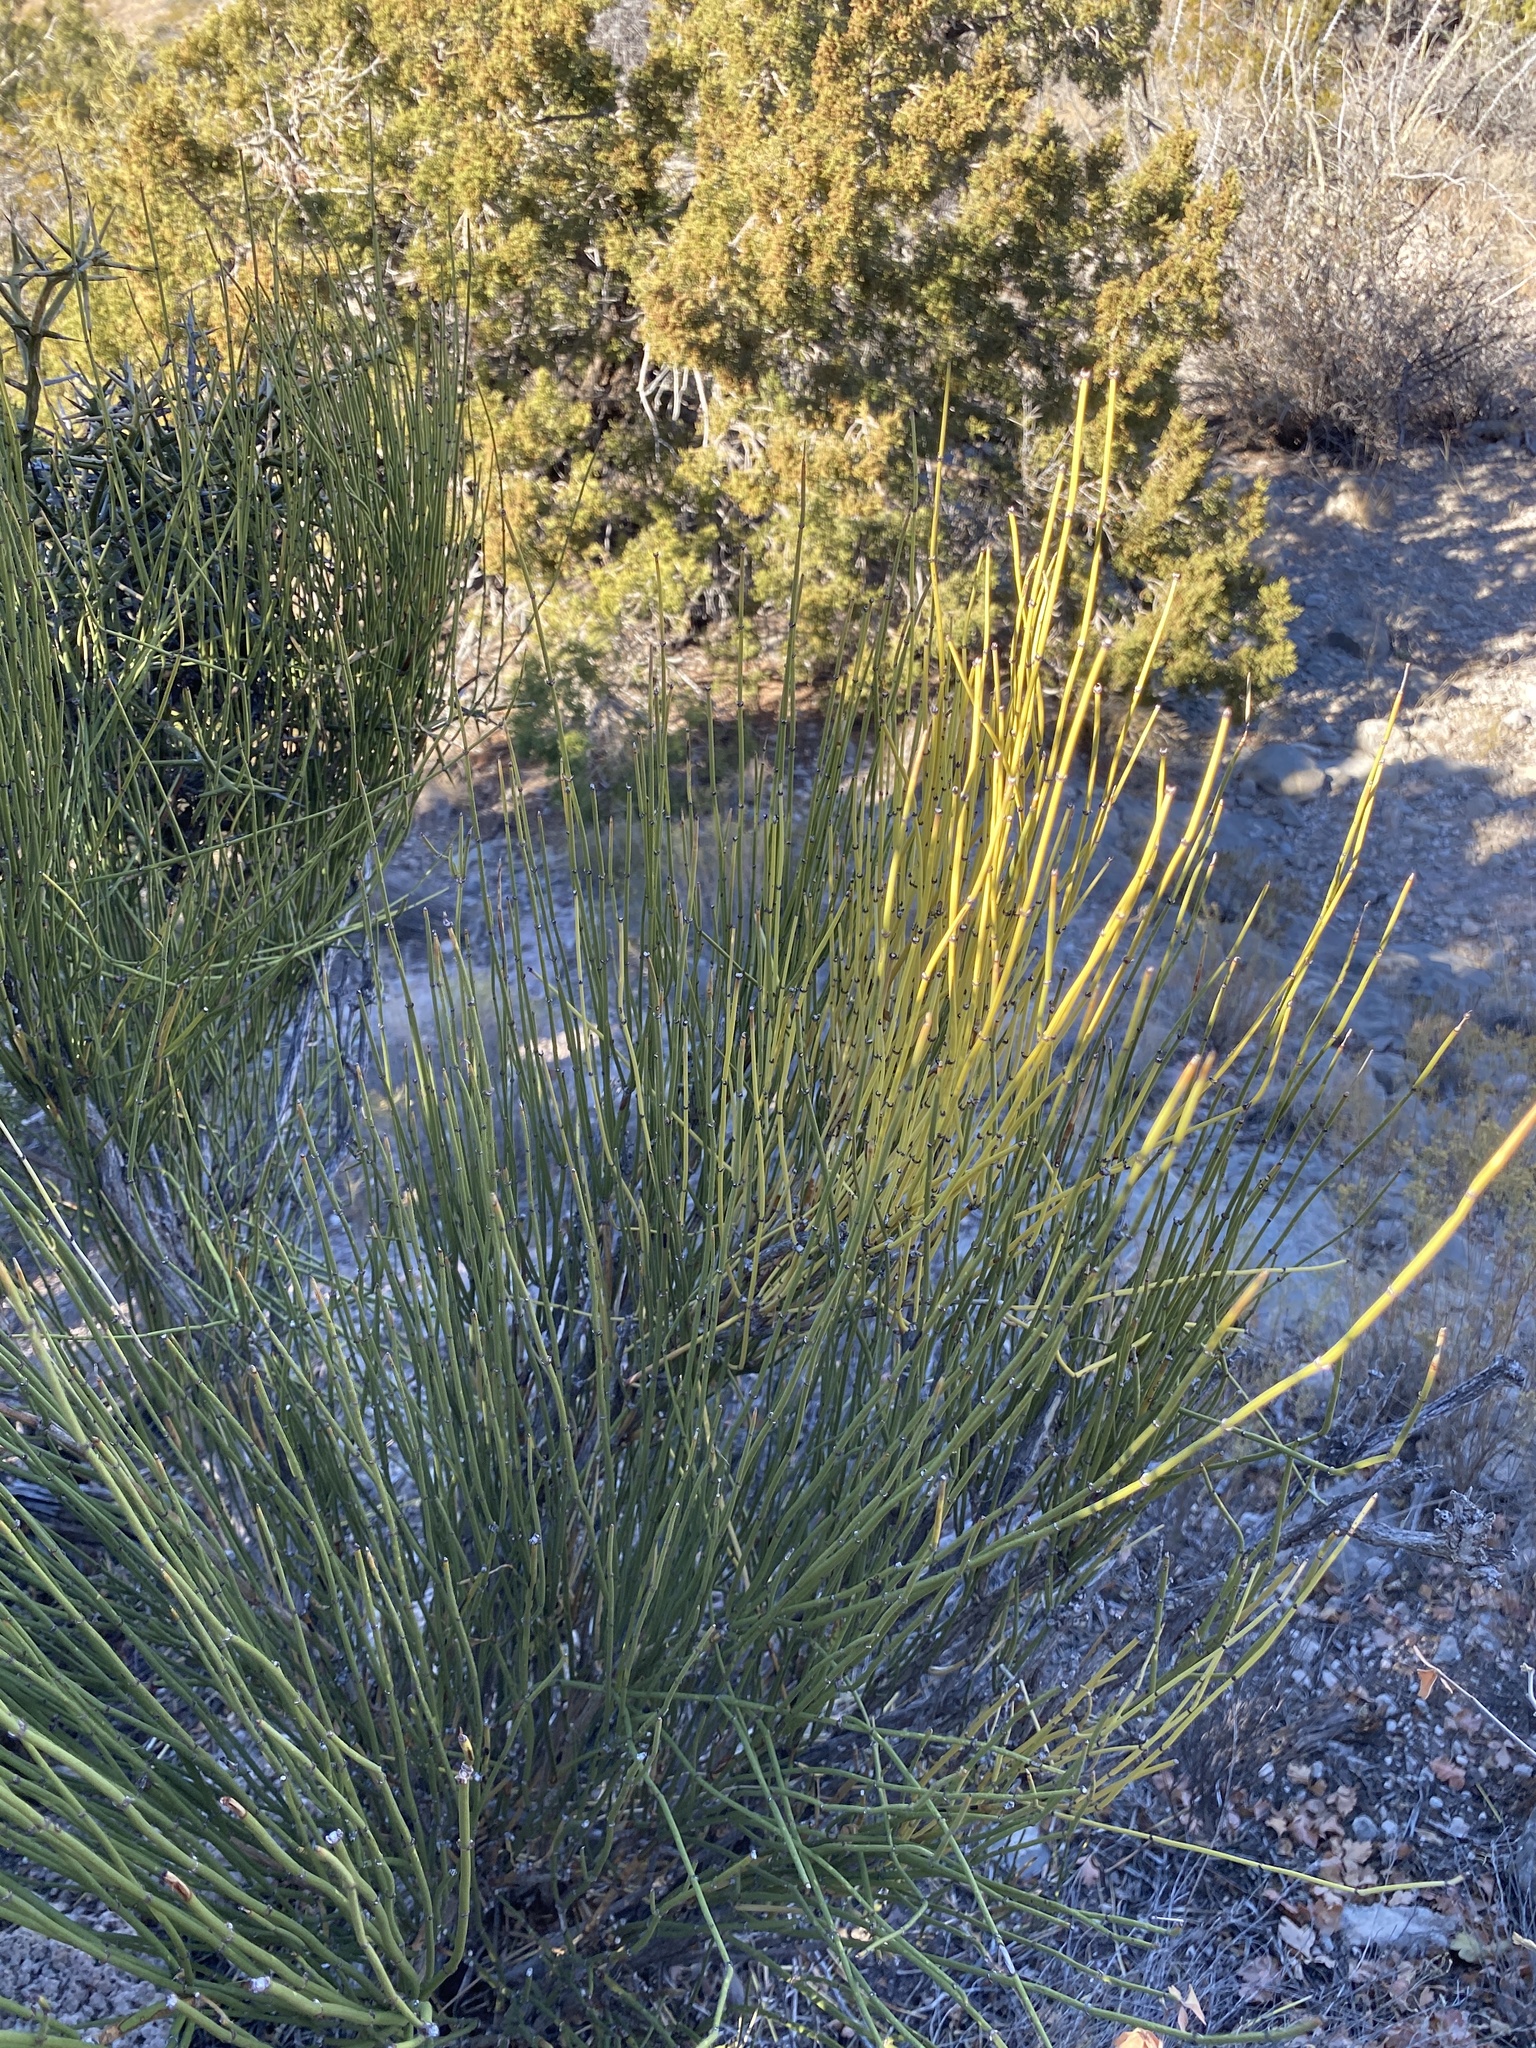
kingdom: Plantae
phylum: Tracheophyta
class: Gnetopsida
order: Ephedrales
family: Ephedraceae
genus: Ephedra
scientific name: Ephedra viridis
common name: Green ephedra
